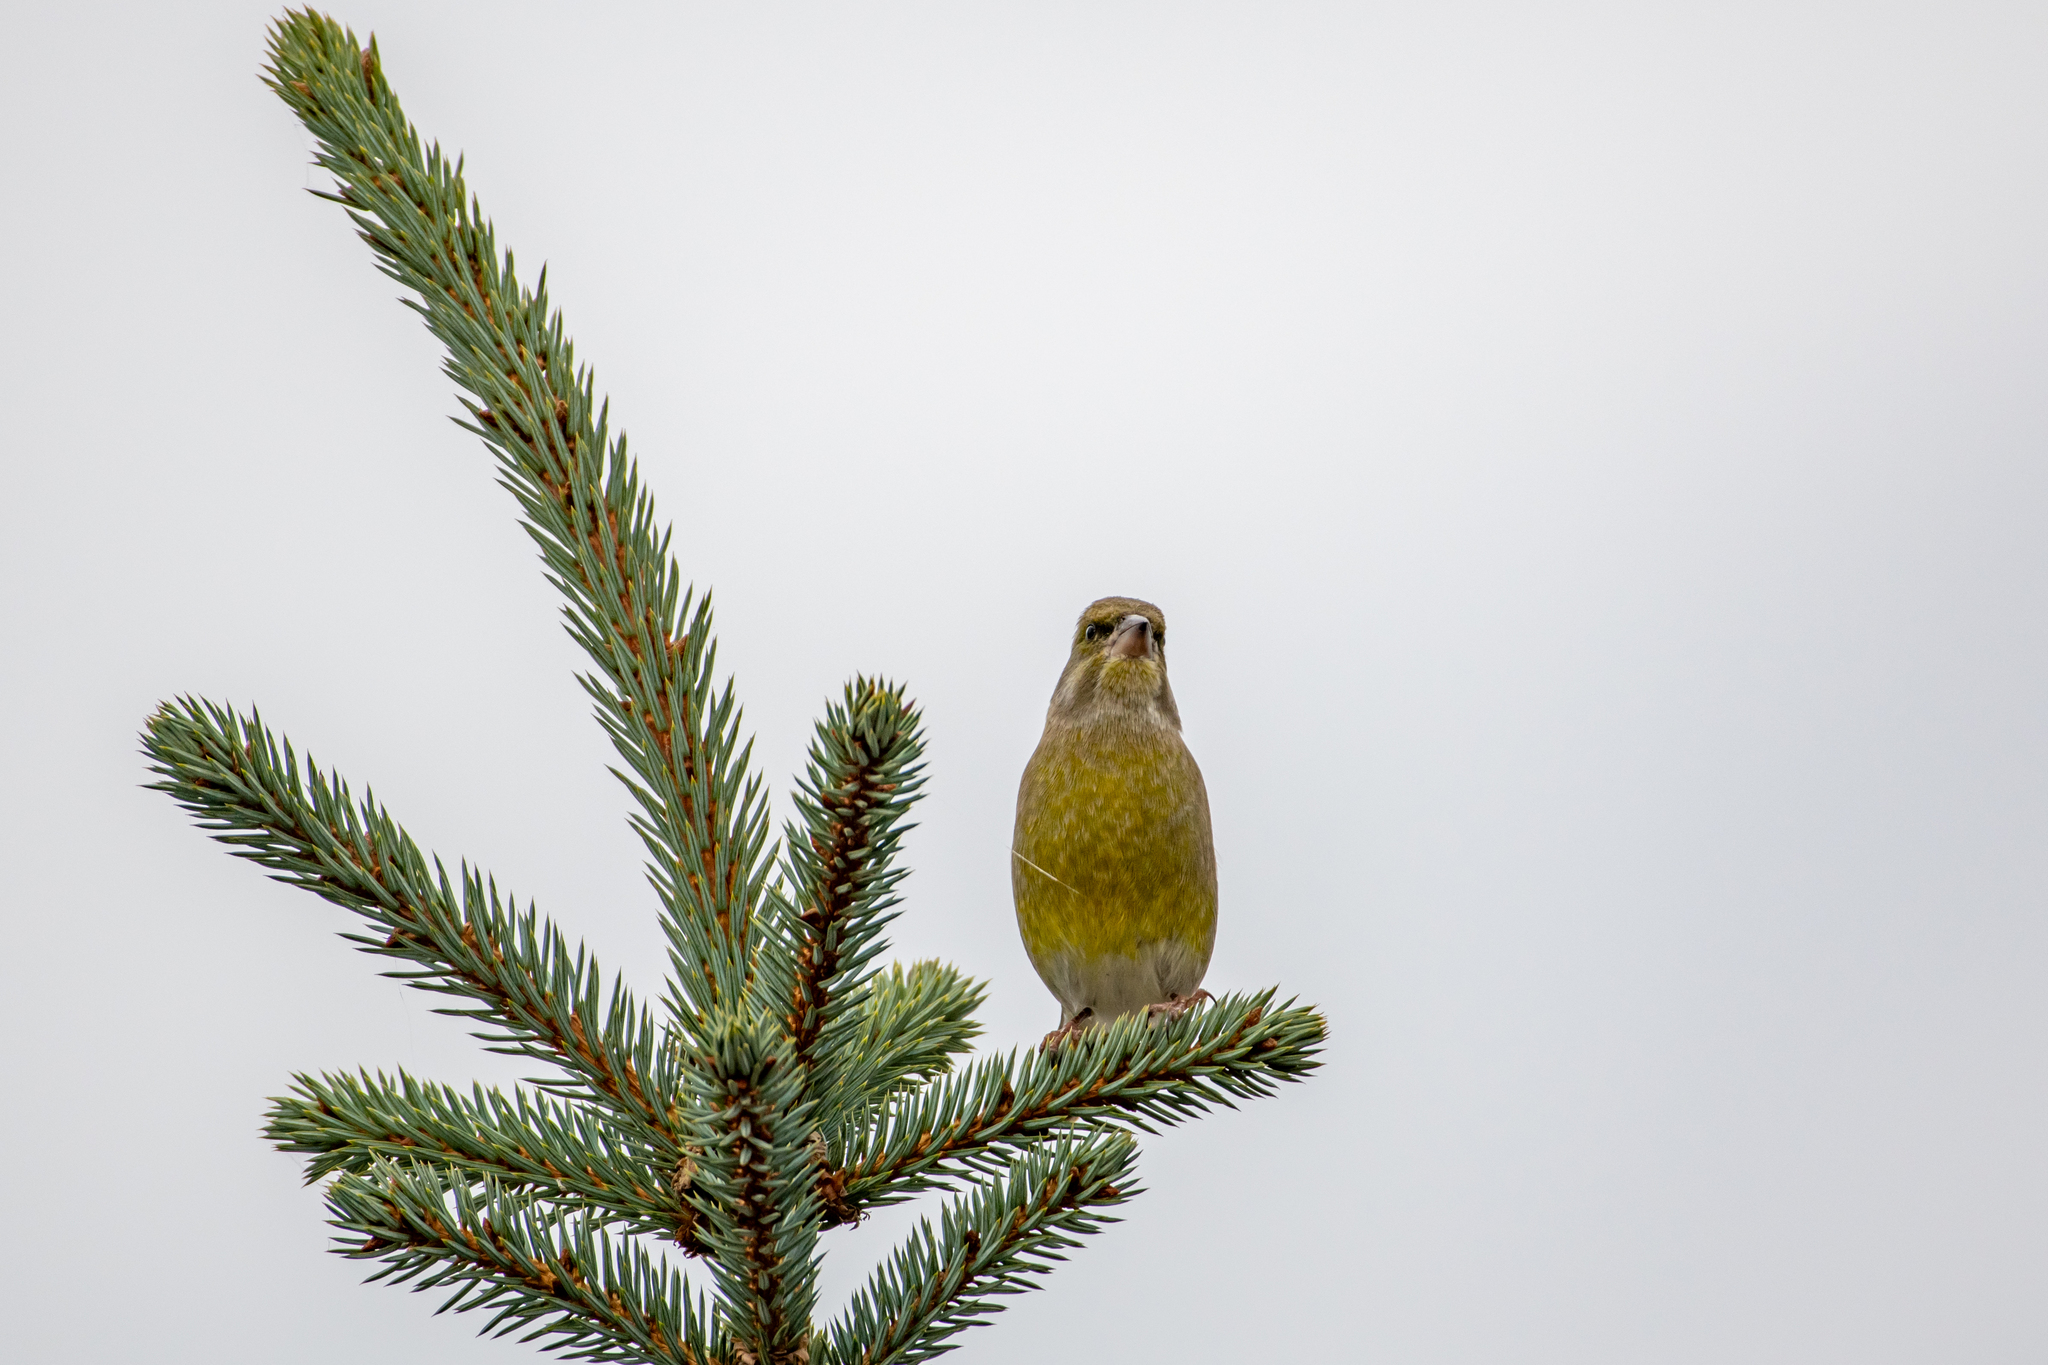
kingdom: Plantae
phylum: Tracheophyta
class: Liliopsida
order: Poales
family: Poaceae
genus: Chloris
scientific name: Chloris chloris
